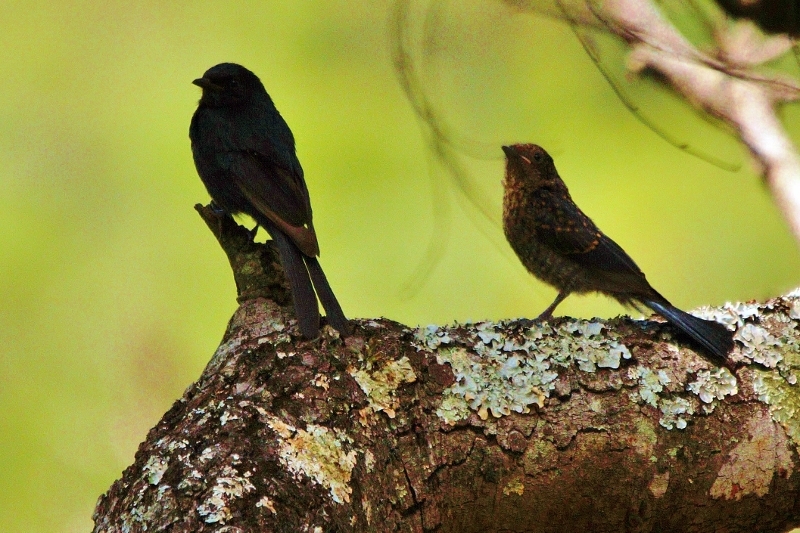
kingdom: Animalia
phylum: Chordata
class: Aves
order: Passeriformes
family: Muscicapidae
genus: Melaenornis
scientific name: Melaenornis pammelaina
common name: Southern black flycatcher
